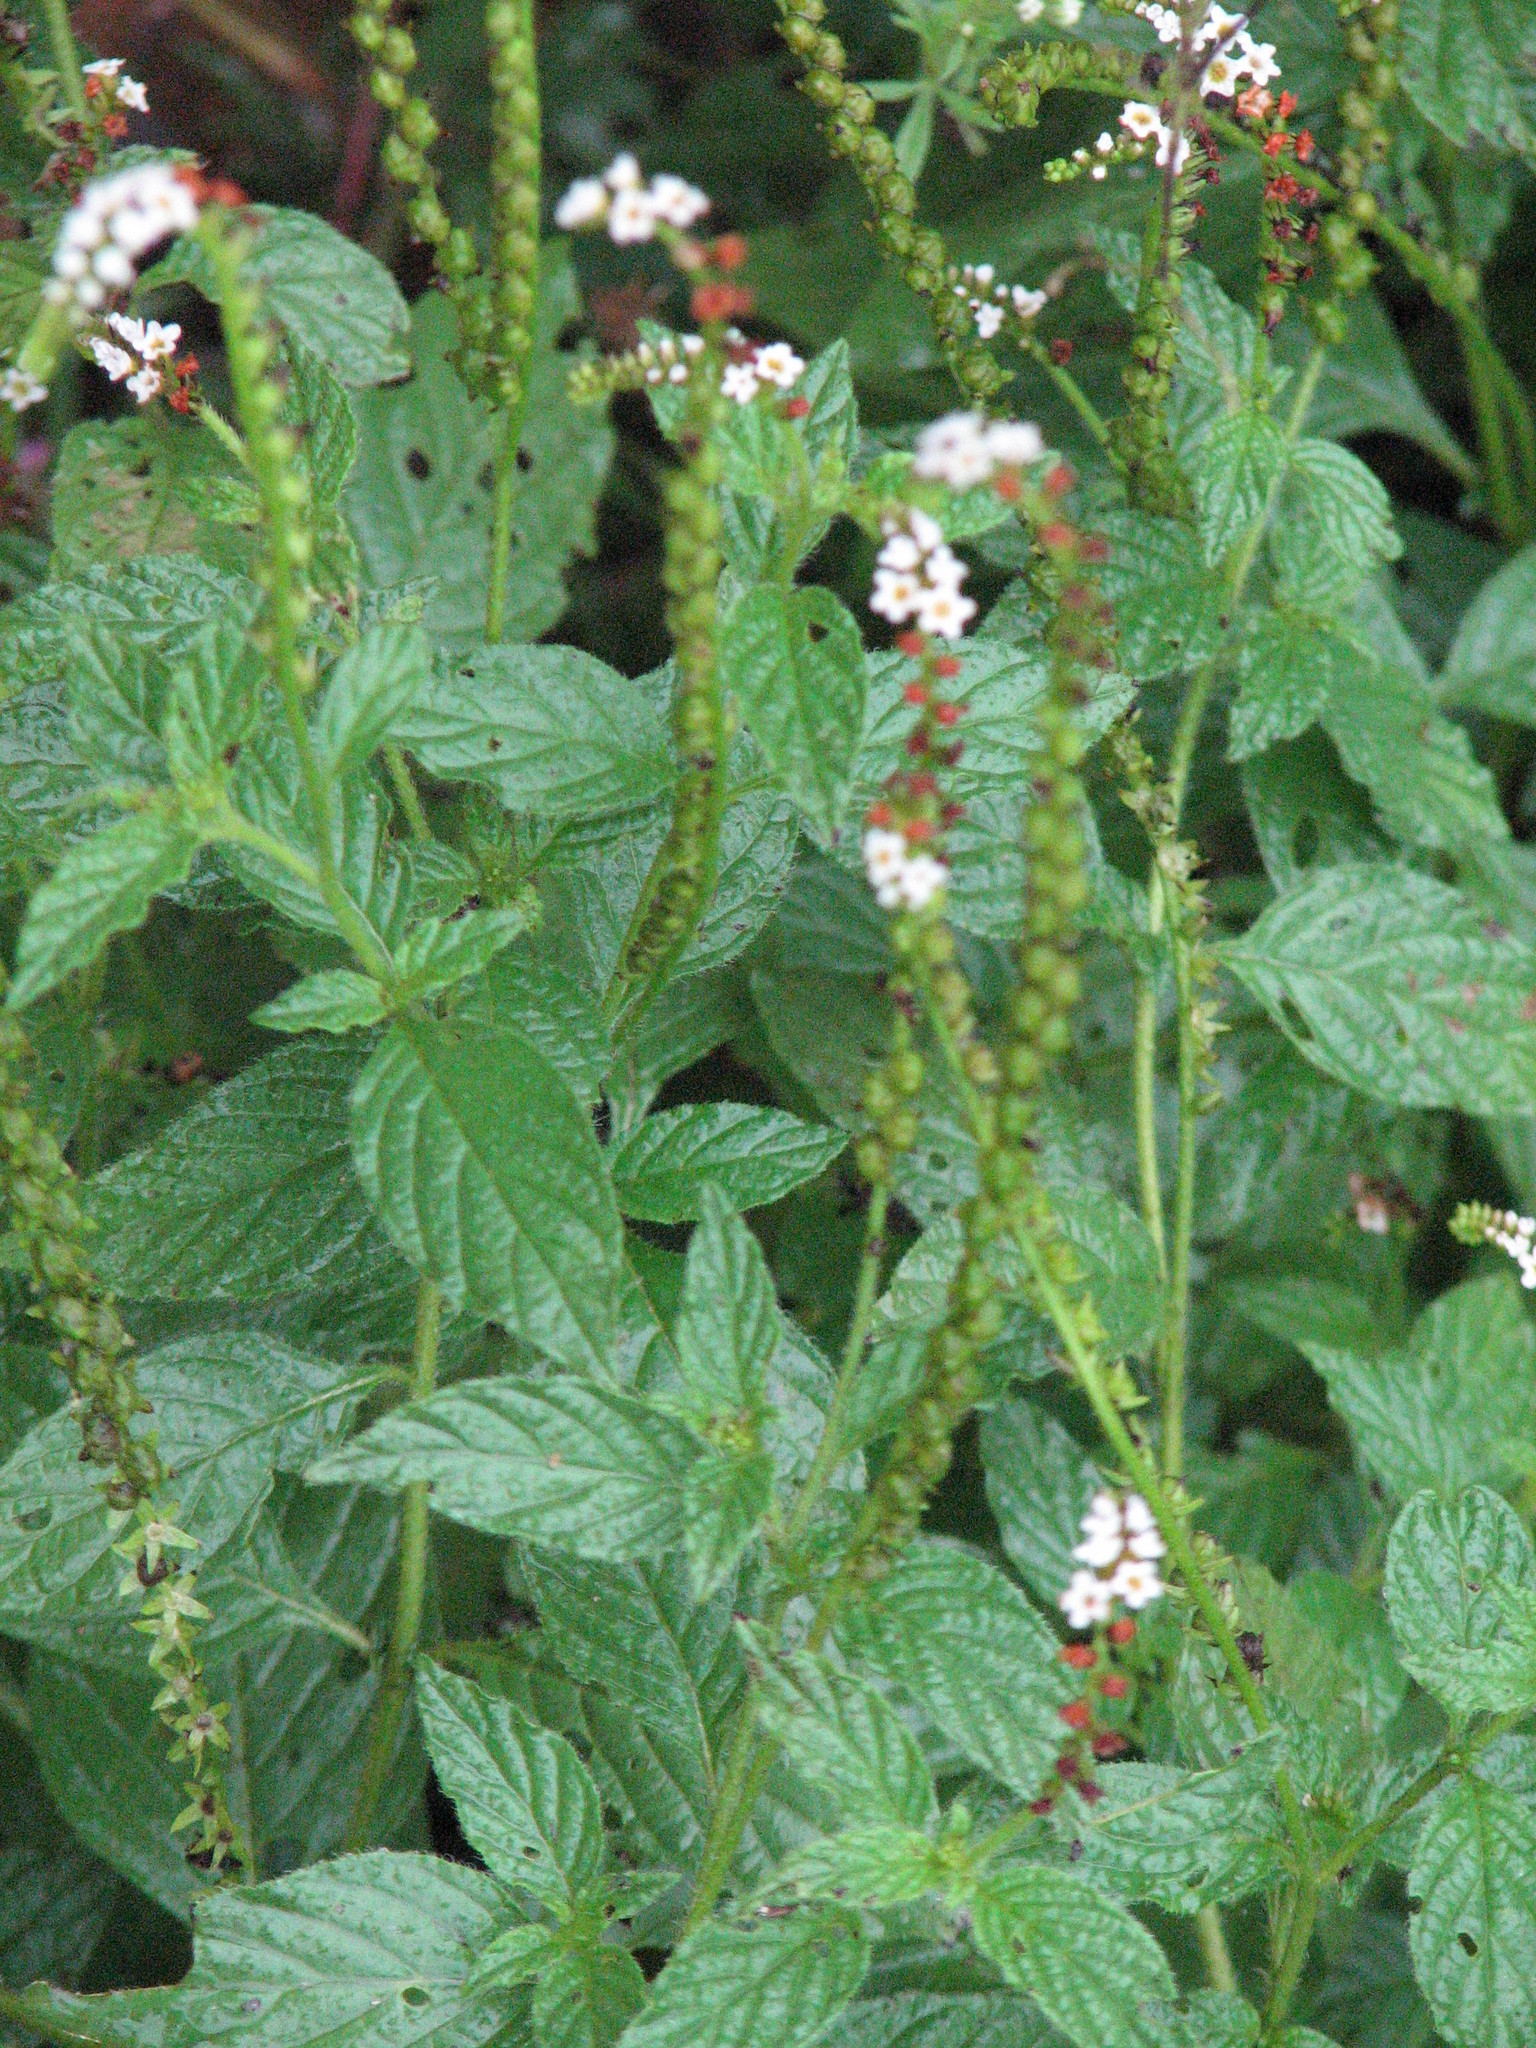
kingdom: Plantae
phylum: Tracheophyta
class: Magnoliopsida
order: Boraginales
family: Heliotropiaceae
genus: Heliotropium
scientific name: Heliotropium angiospermum
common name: Eye bright
